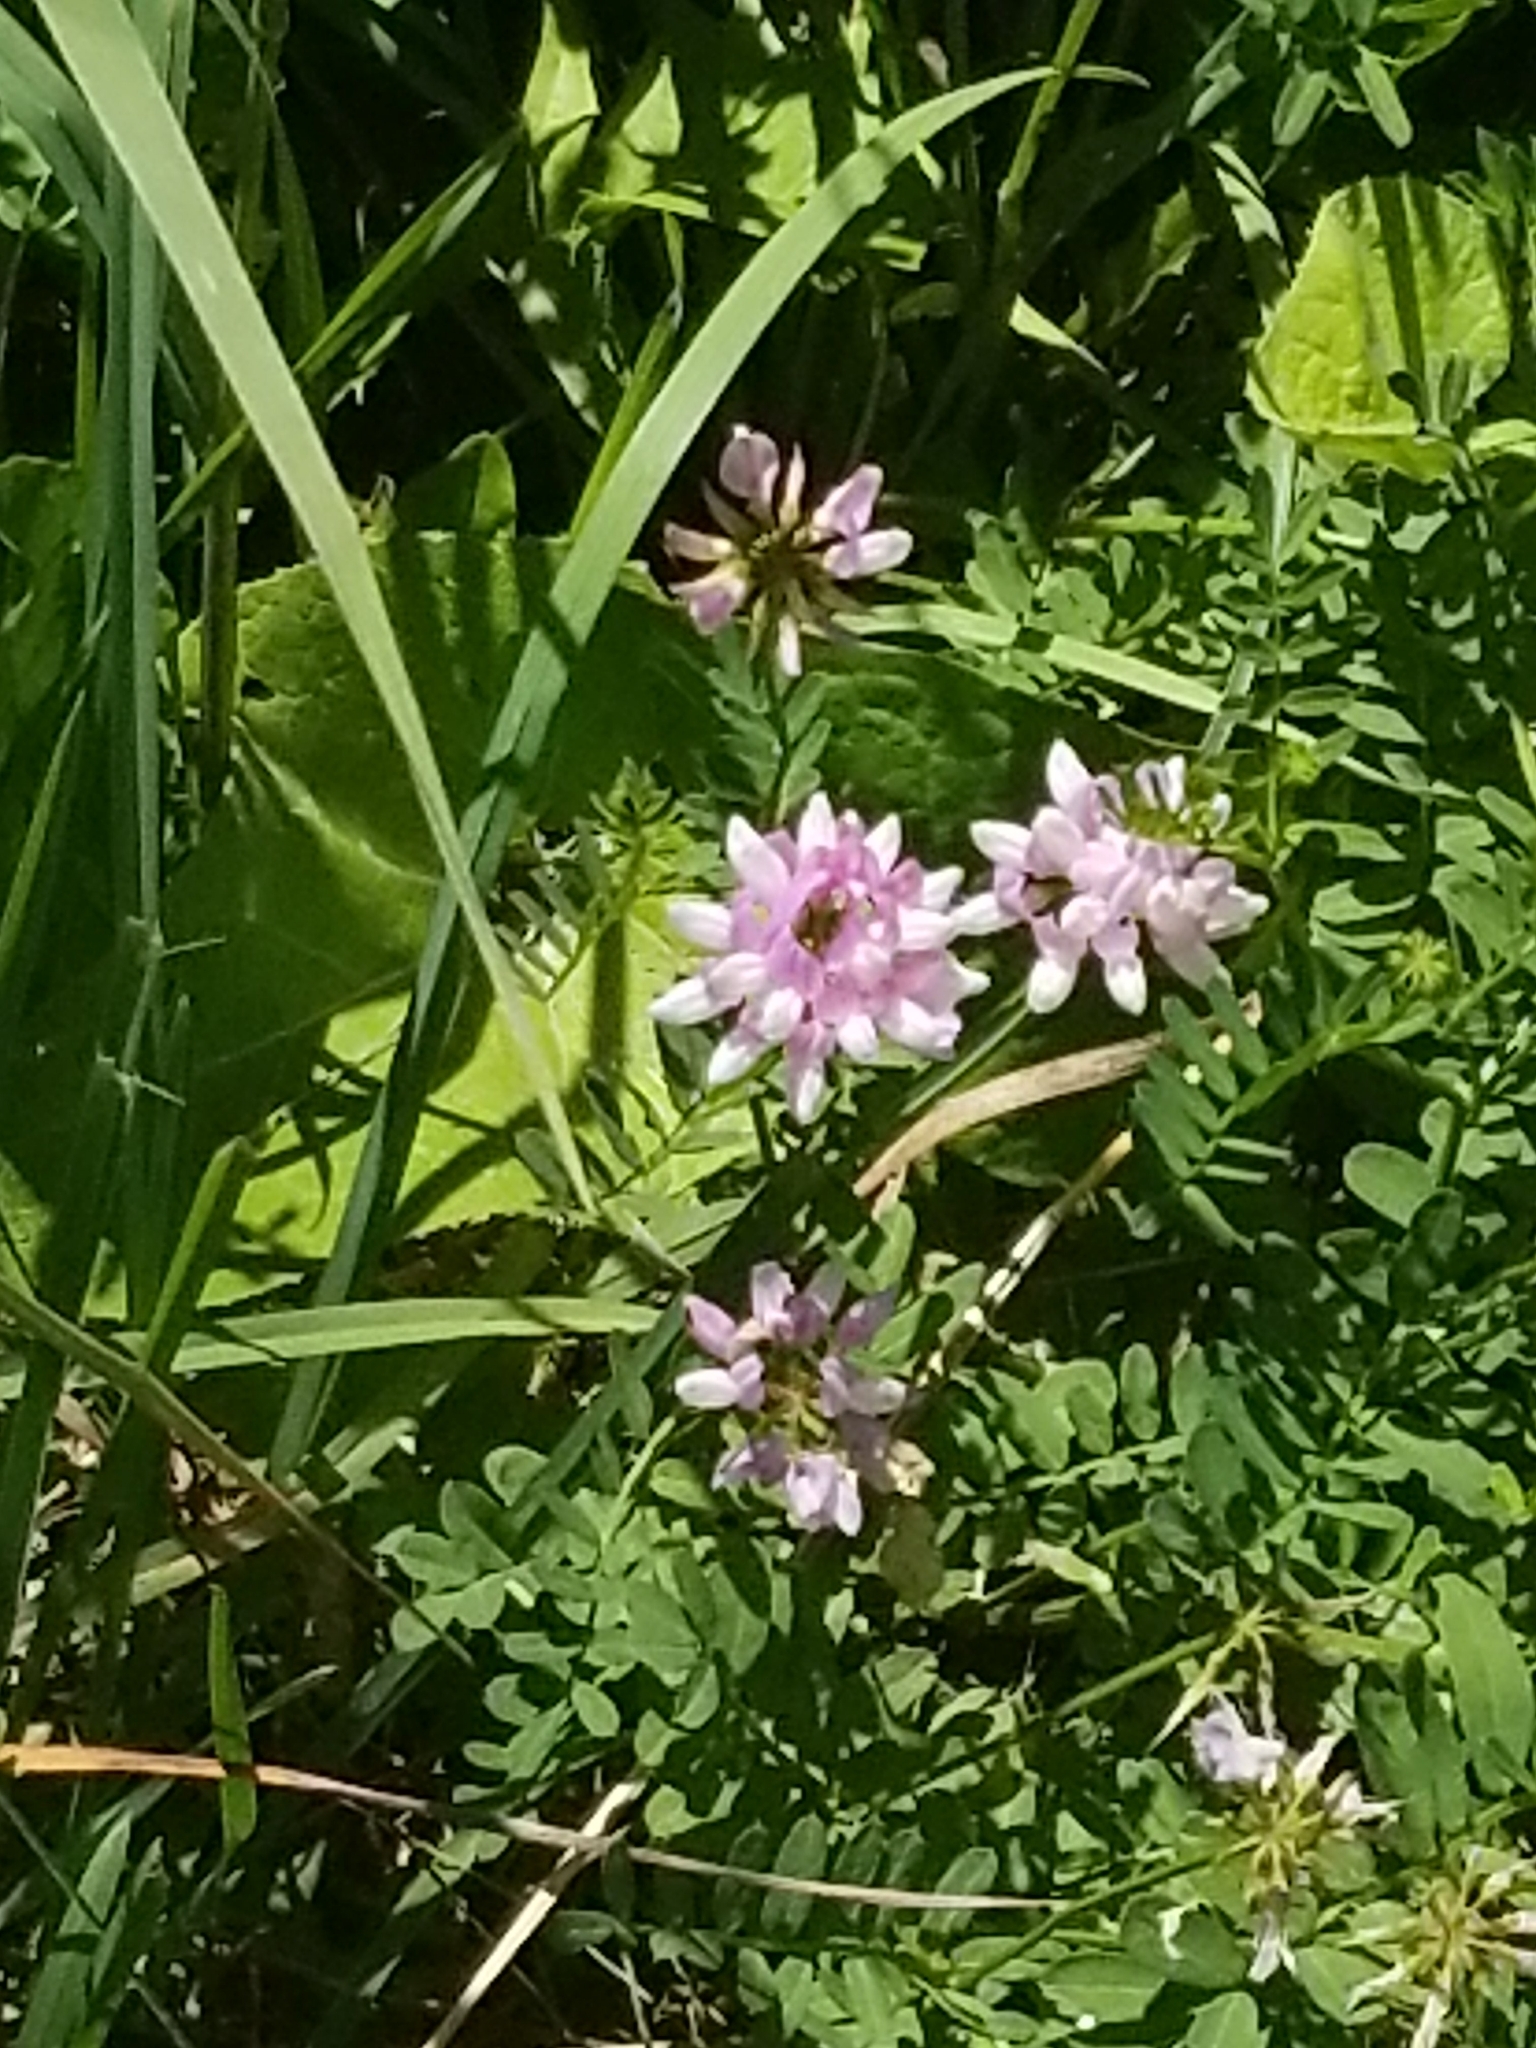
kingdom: Plantae
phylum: Tracheophyta
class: Magnoliopsida
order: Fabales
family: Fabaceae
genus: Coronilla
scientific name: Coronilla varia
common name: Crownvetch
